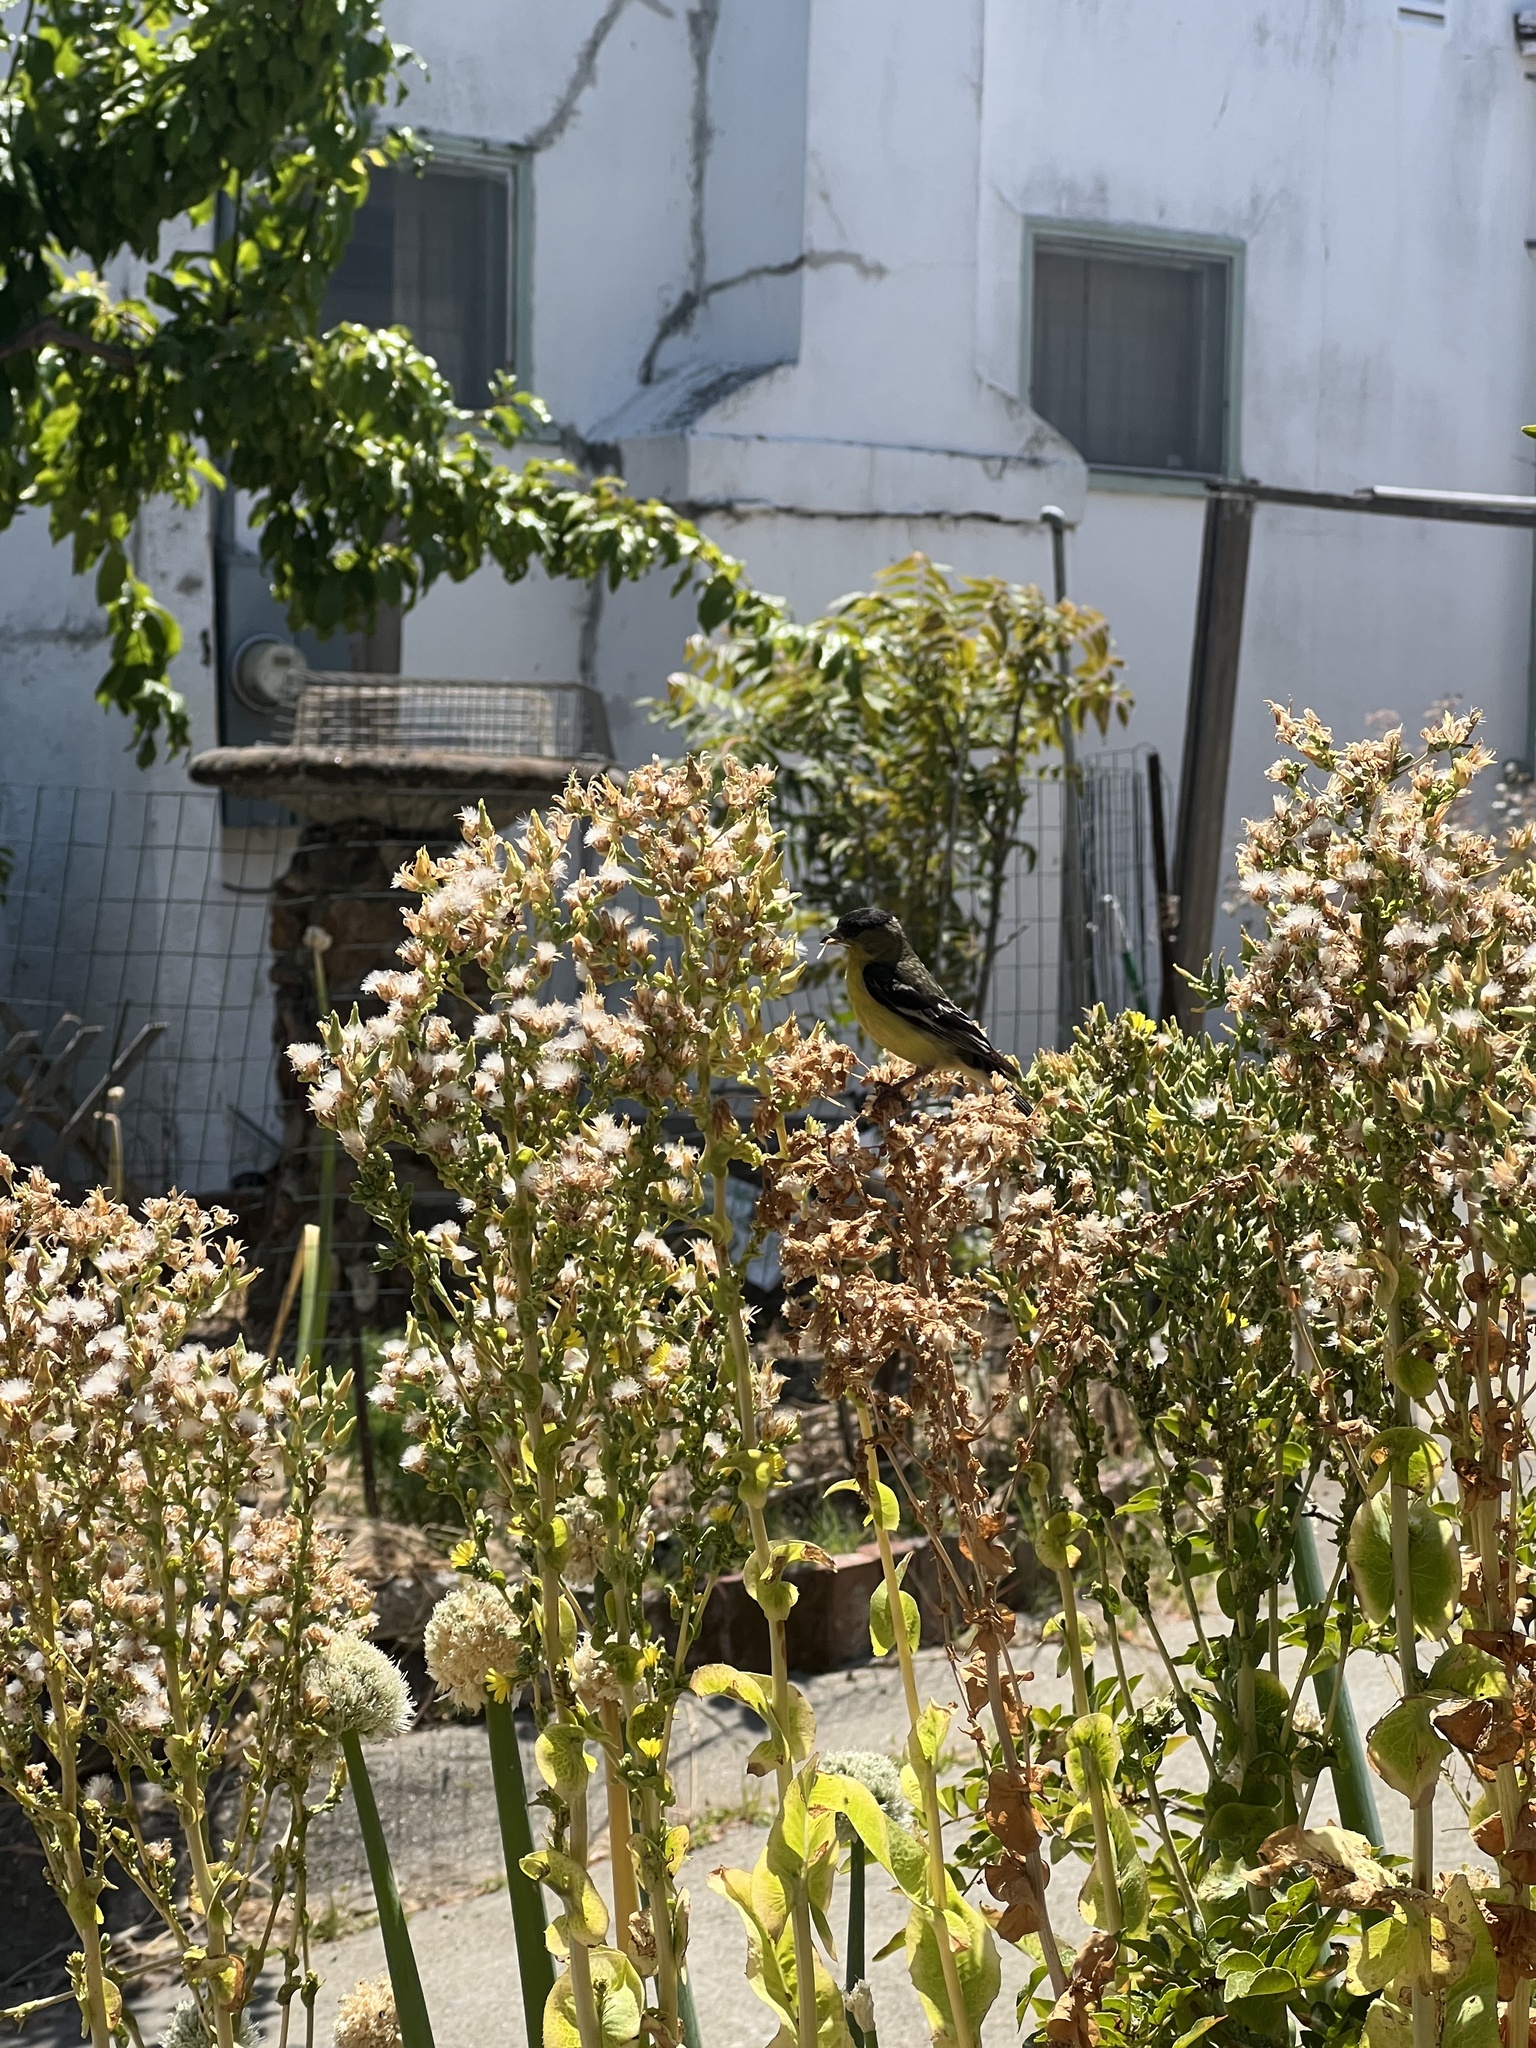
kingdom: Animalia
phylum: Chordata
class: Aves
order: Passeriformes
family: Fringillidae
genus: Spinus
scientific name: Spinus psaltria
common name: Lesser goldfinch
